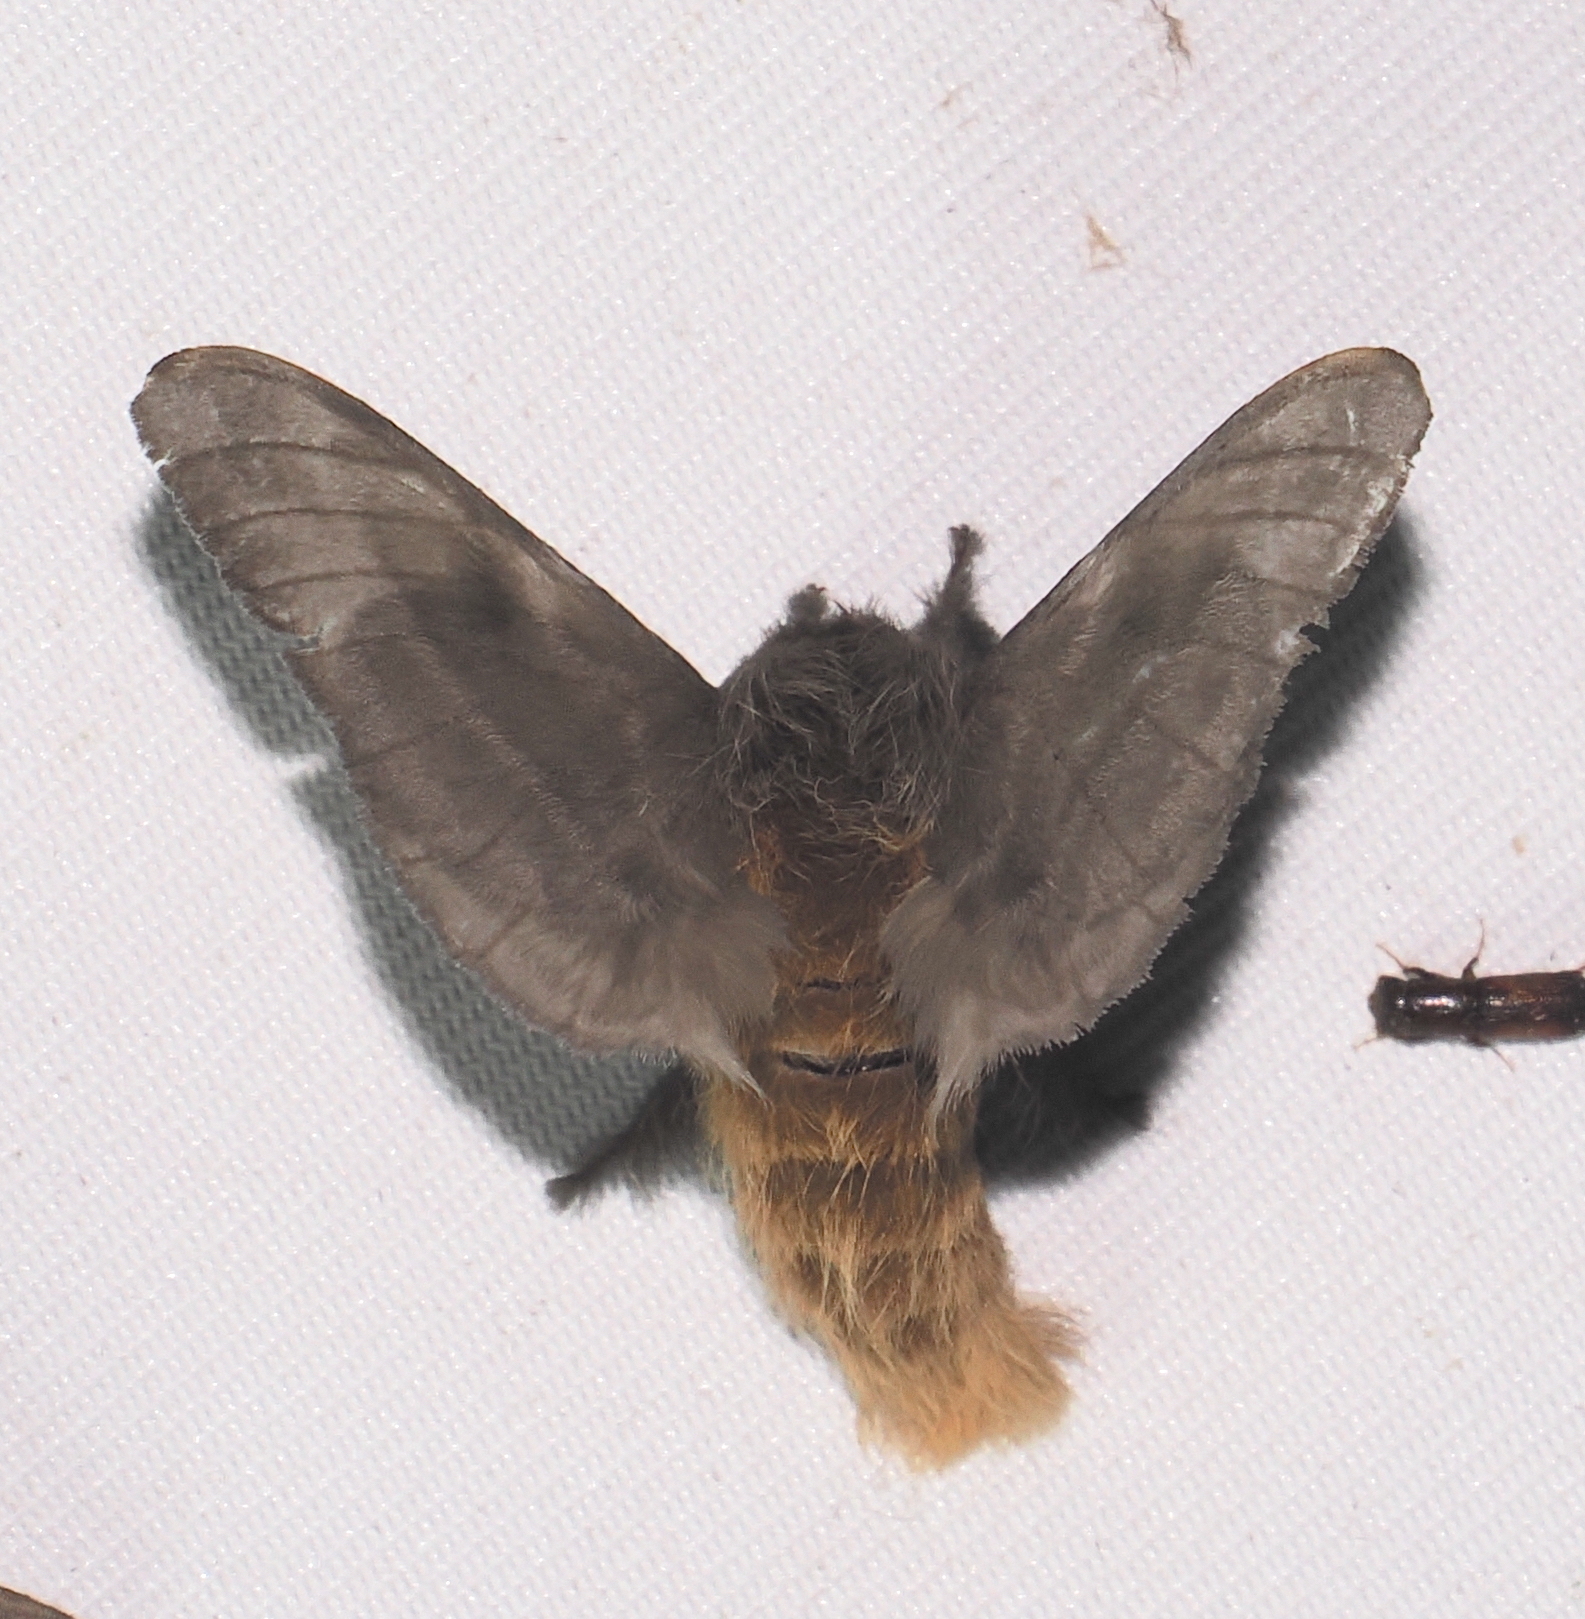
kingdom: Animalia
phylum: Arthropoda
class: Insecta
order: Lepidoptera
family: Saturniidae
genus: Hylesia
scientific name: Hylesia metabus
